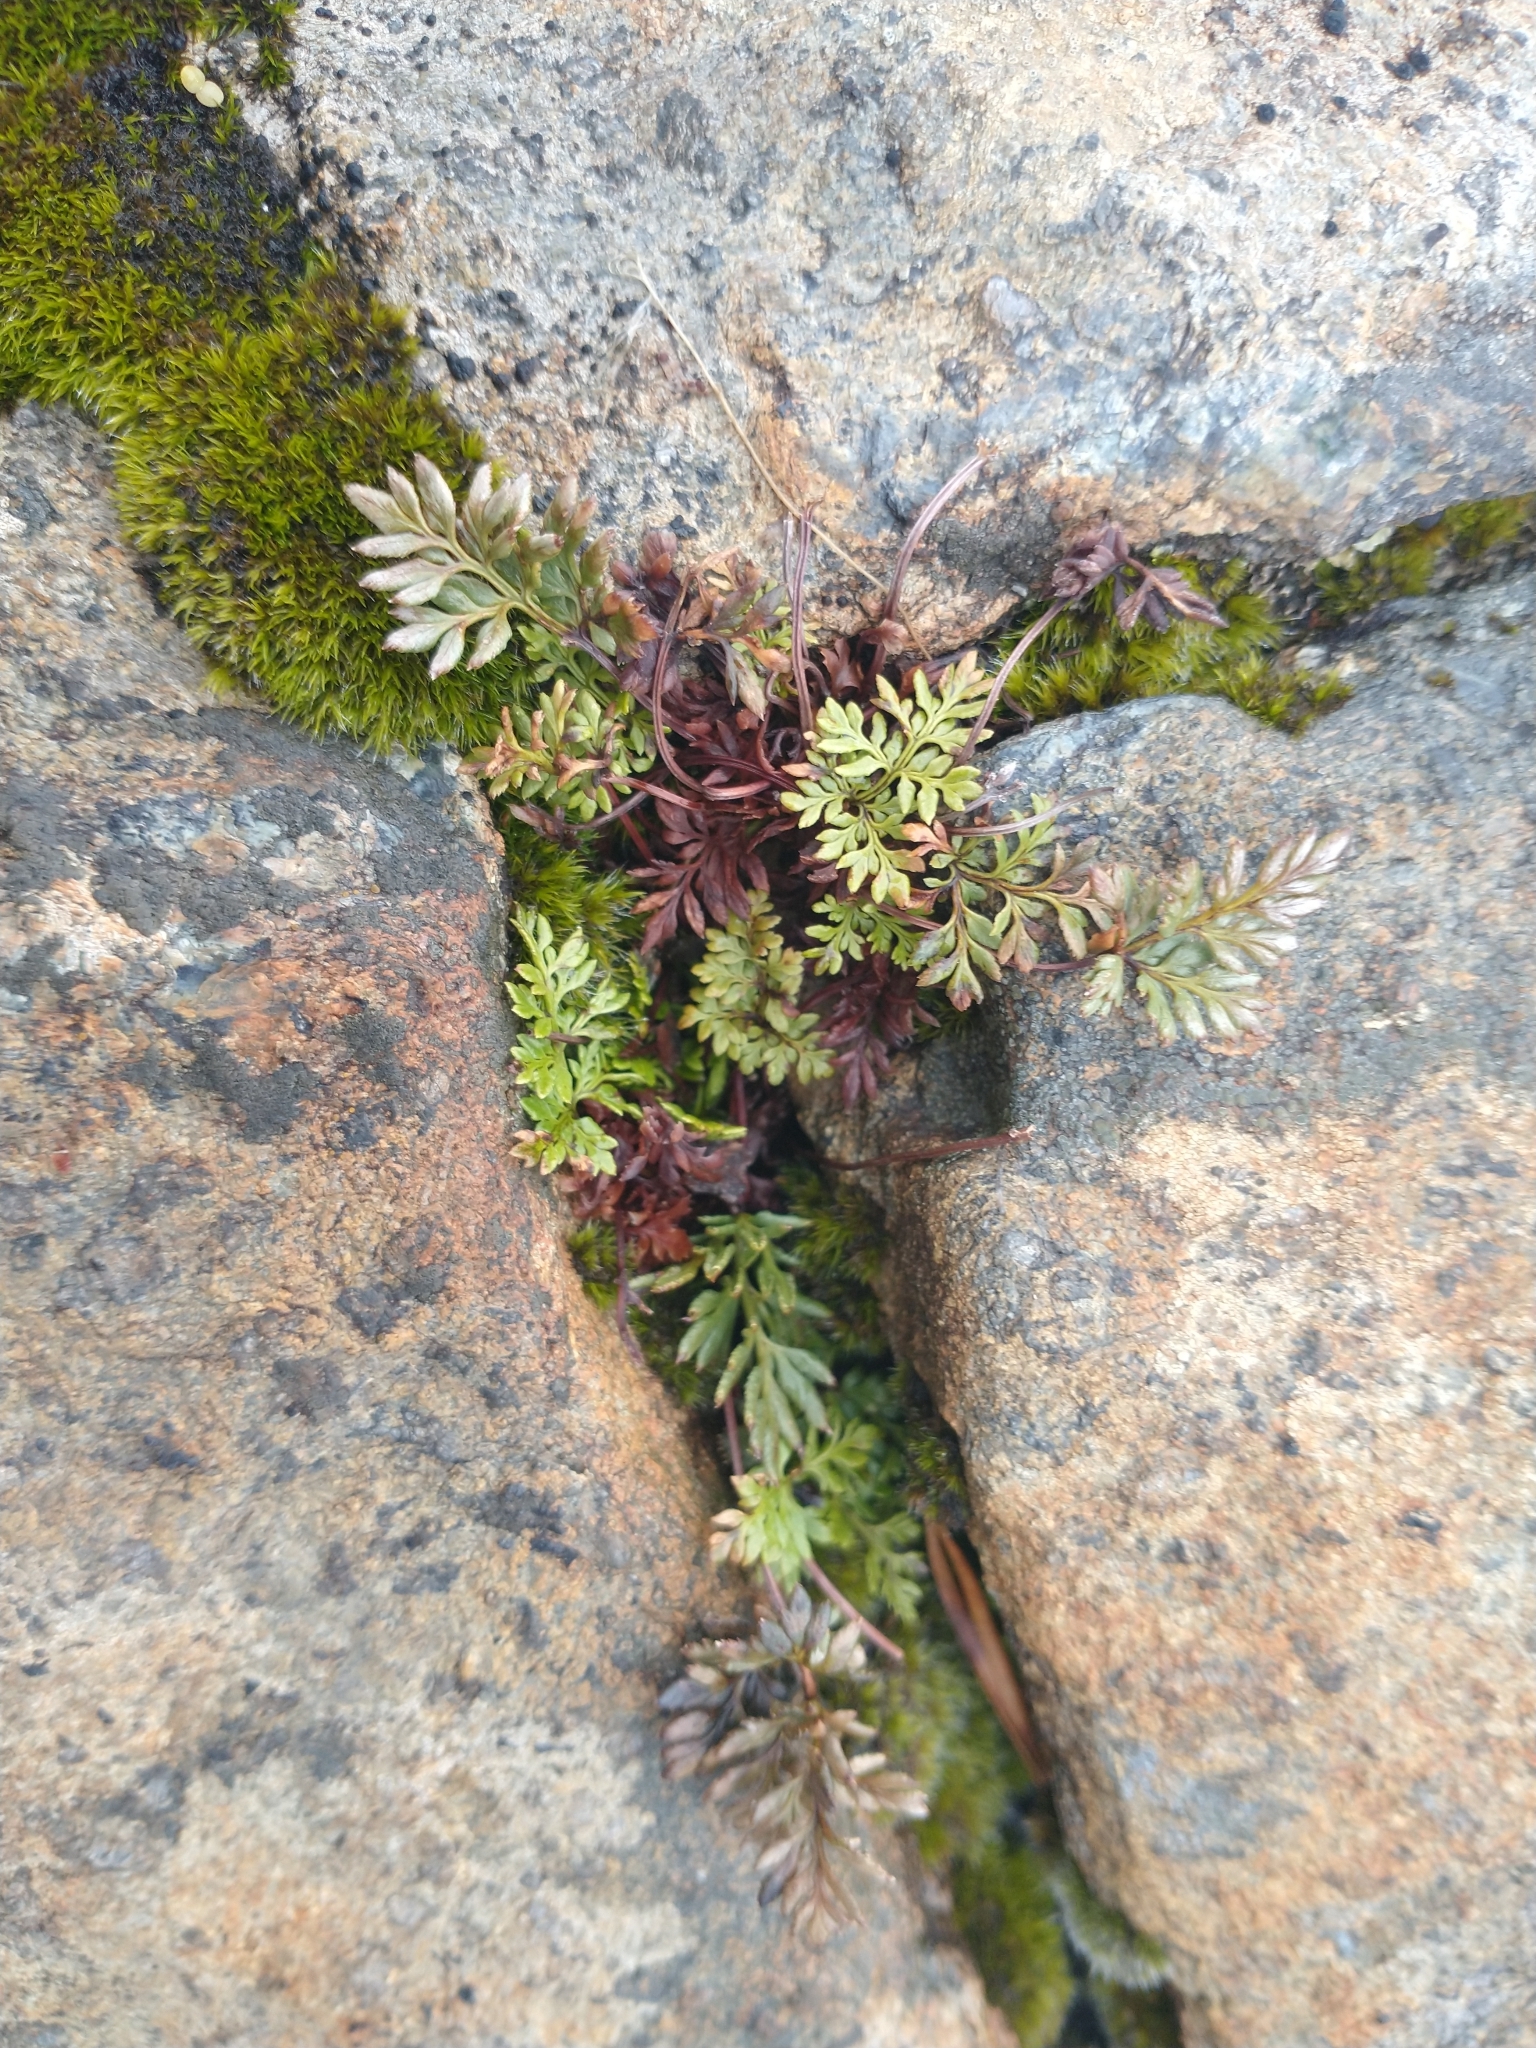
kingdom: Plantae
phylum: Tracheophyta
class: Polypodiopsida
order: Polypodiales
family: Pteridaceae
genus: Aspidotis
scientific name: Aspidotis densa
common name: Indian's dream
